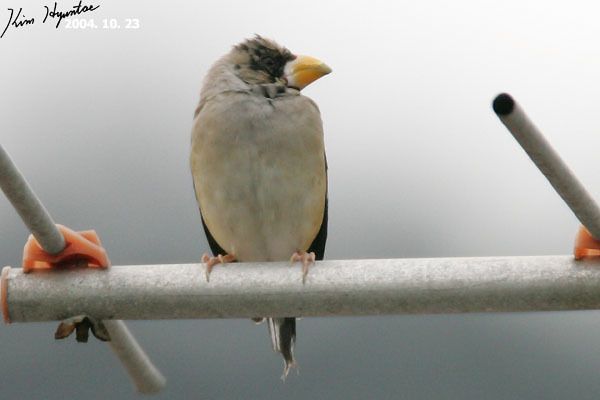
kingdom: Animalia
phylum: Chordata
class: Aves
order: Passeriformes
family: Fringillidae
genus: Eophona
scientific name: Eophona migratoria
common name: Yellow-billed grosbeak
